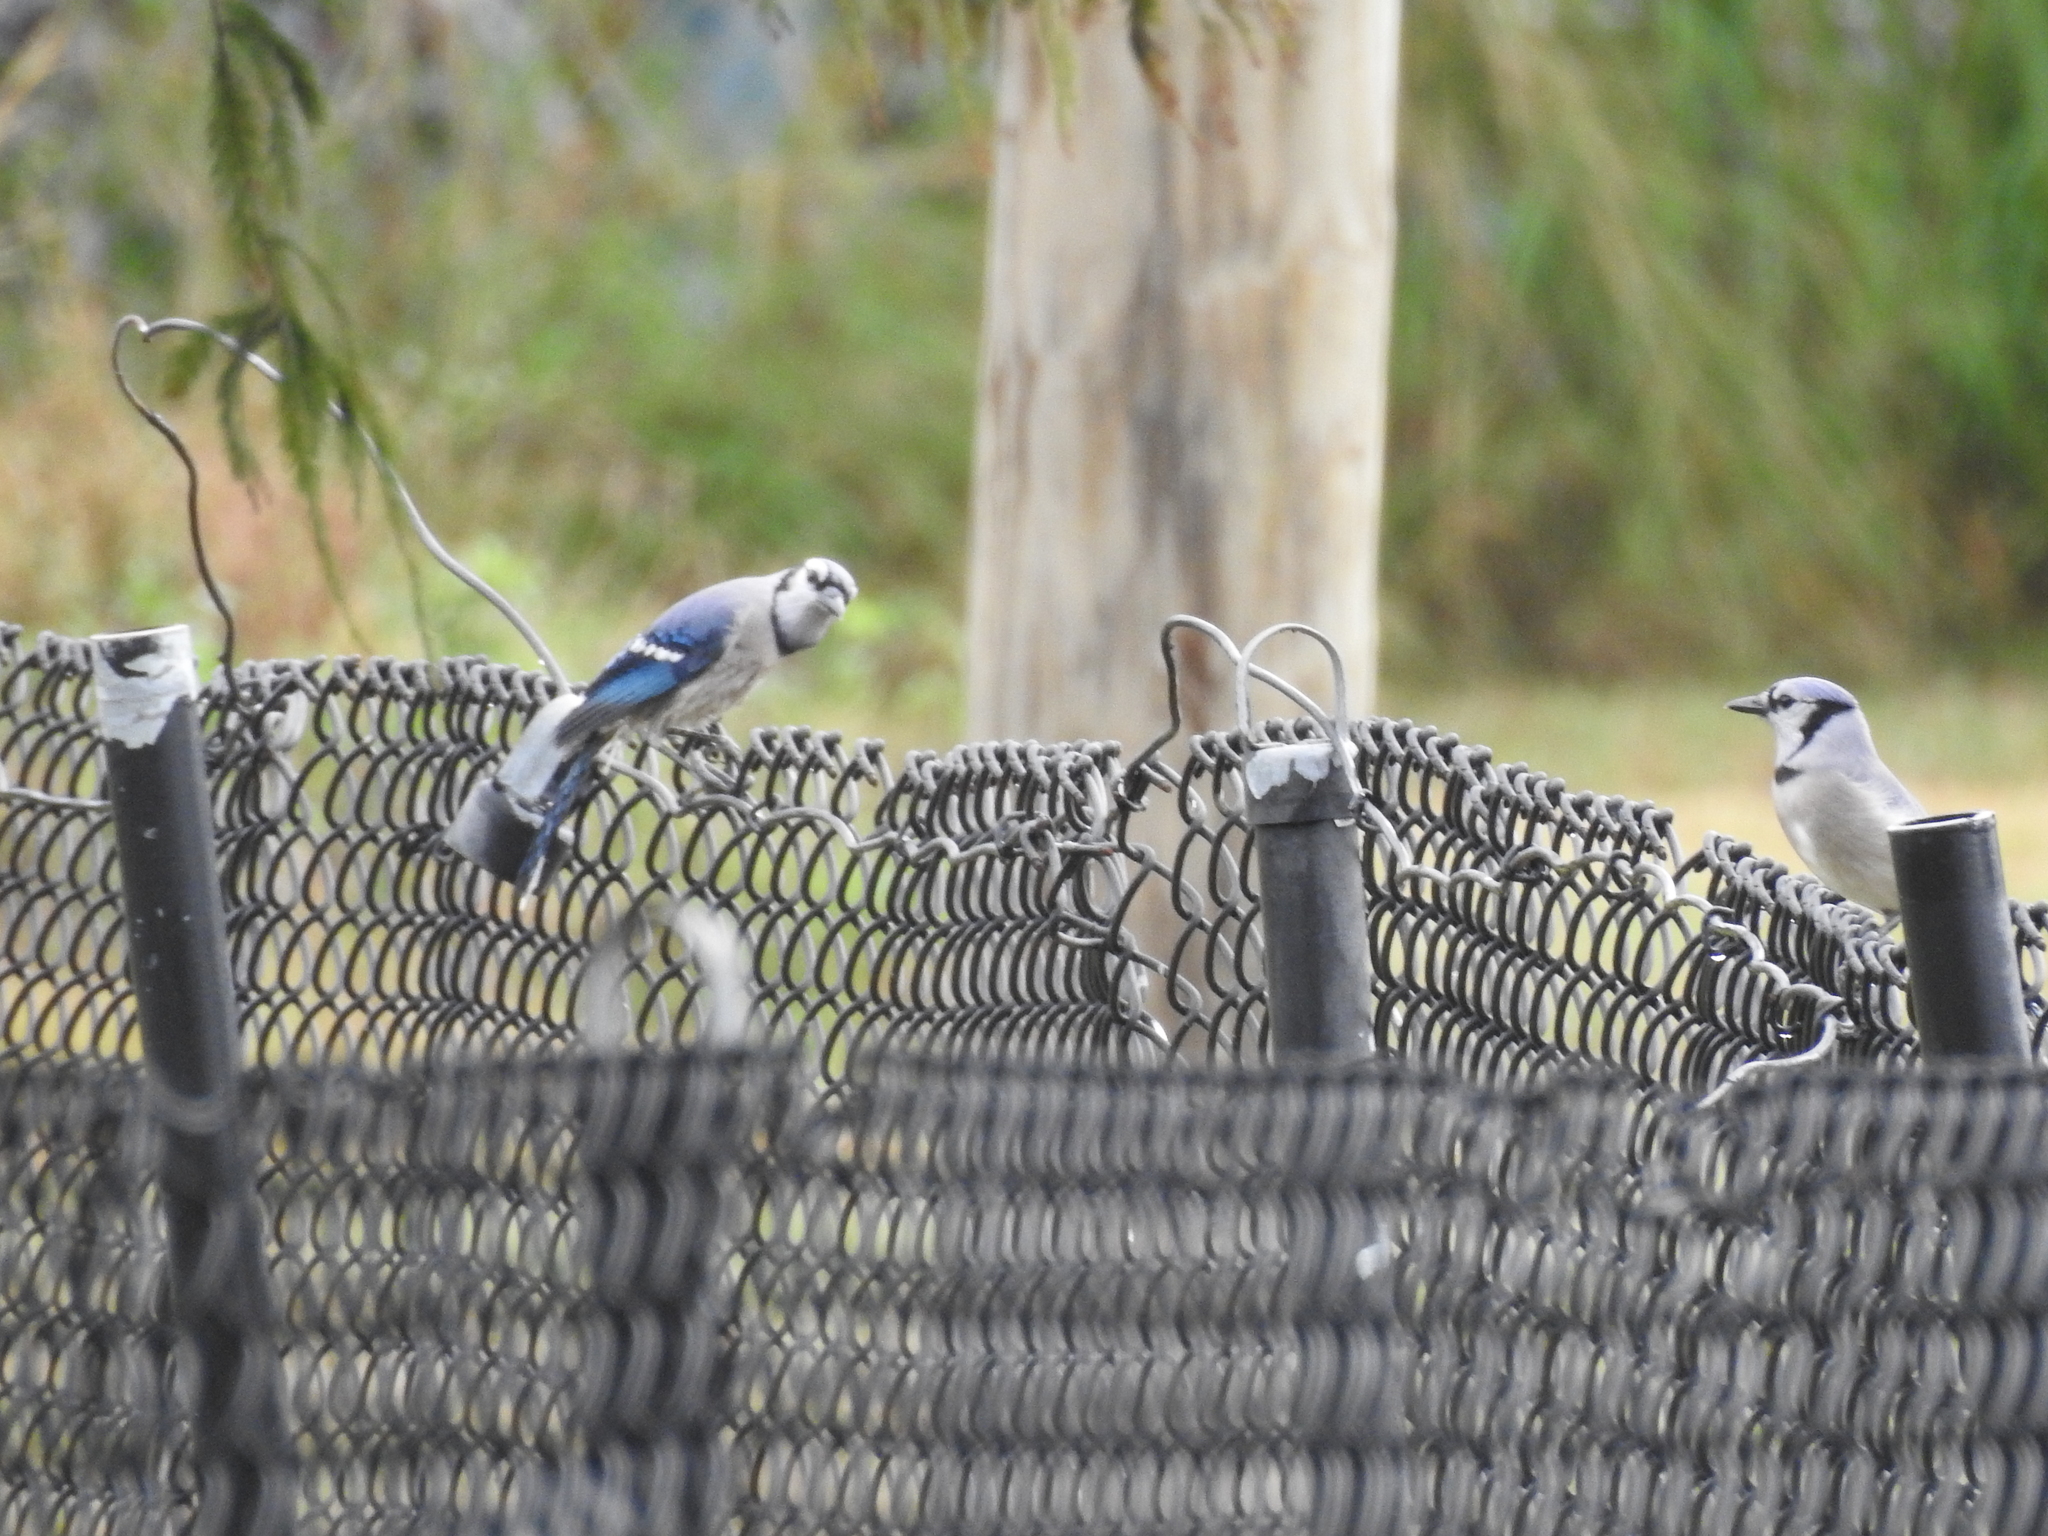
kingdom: Animalia
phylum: Chordata
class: Aves
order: Passeriformes
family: Corvidae
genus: Cyanocitta
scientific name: Cyanocitta cristata
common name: Blue jay
